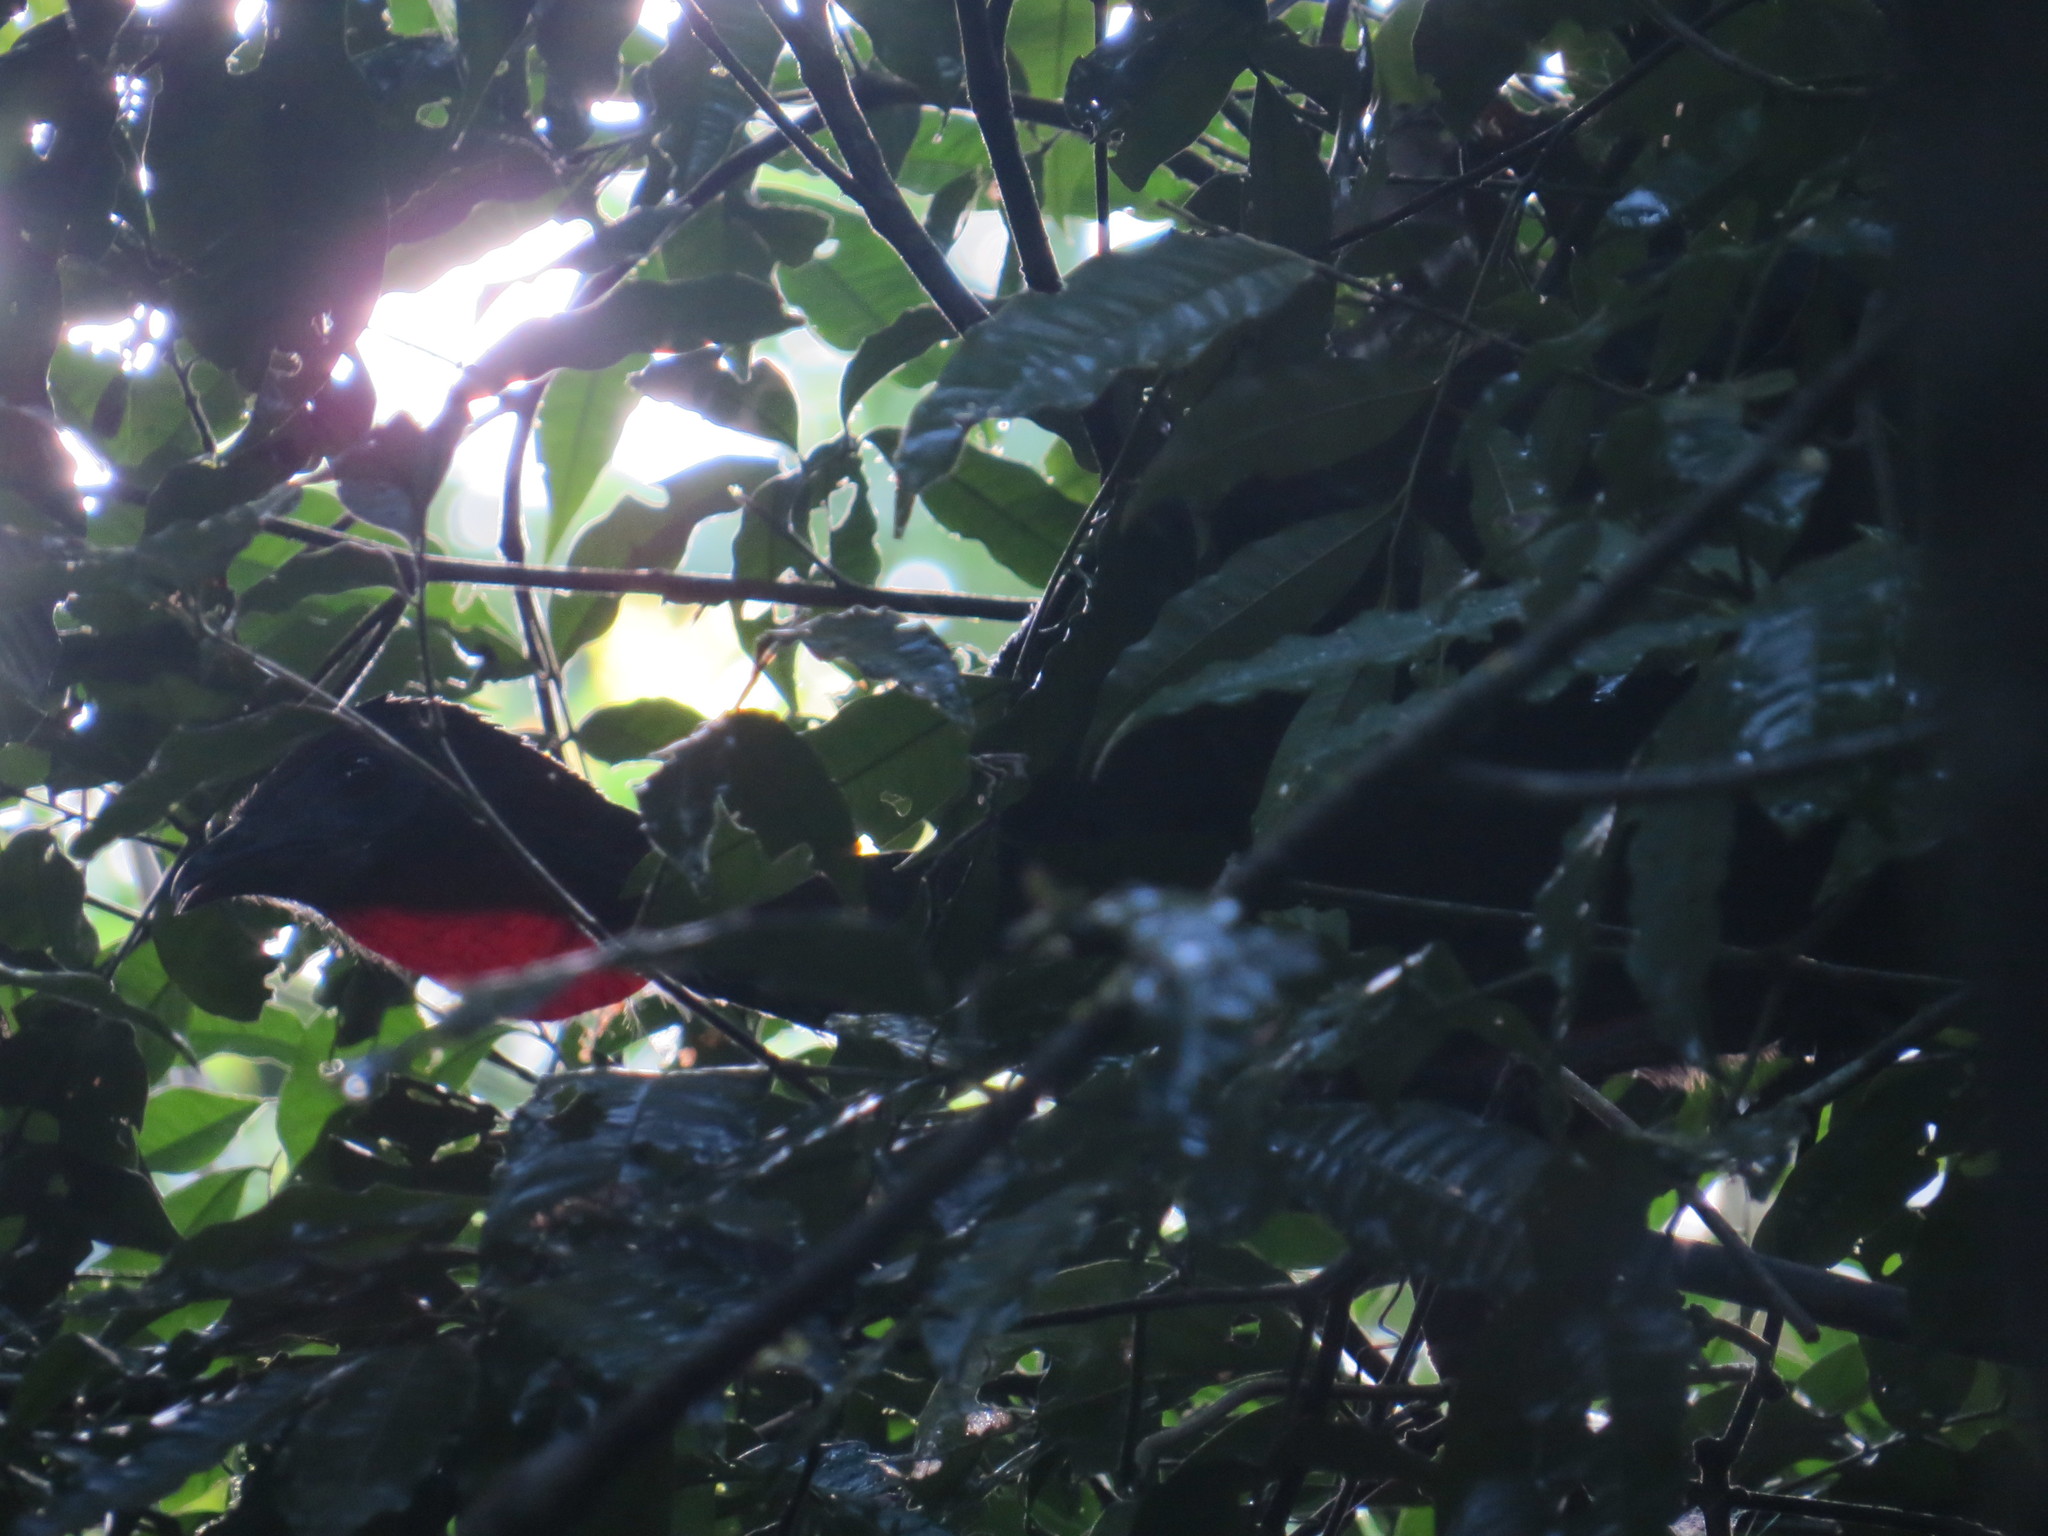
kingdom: Animalia
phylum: Chordata
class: Aves
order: Galliformes
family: Cracidae
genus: Penelope
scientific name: Penelope purpurascens
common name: Crested guan
